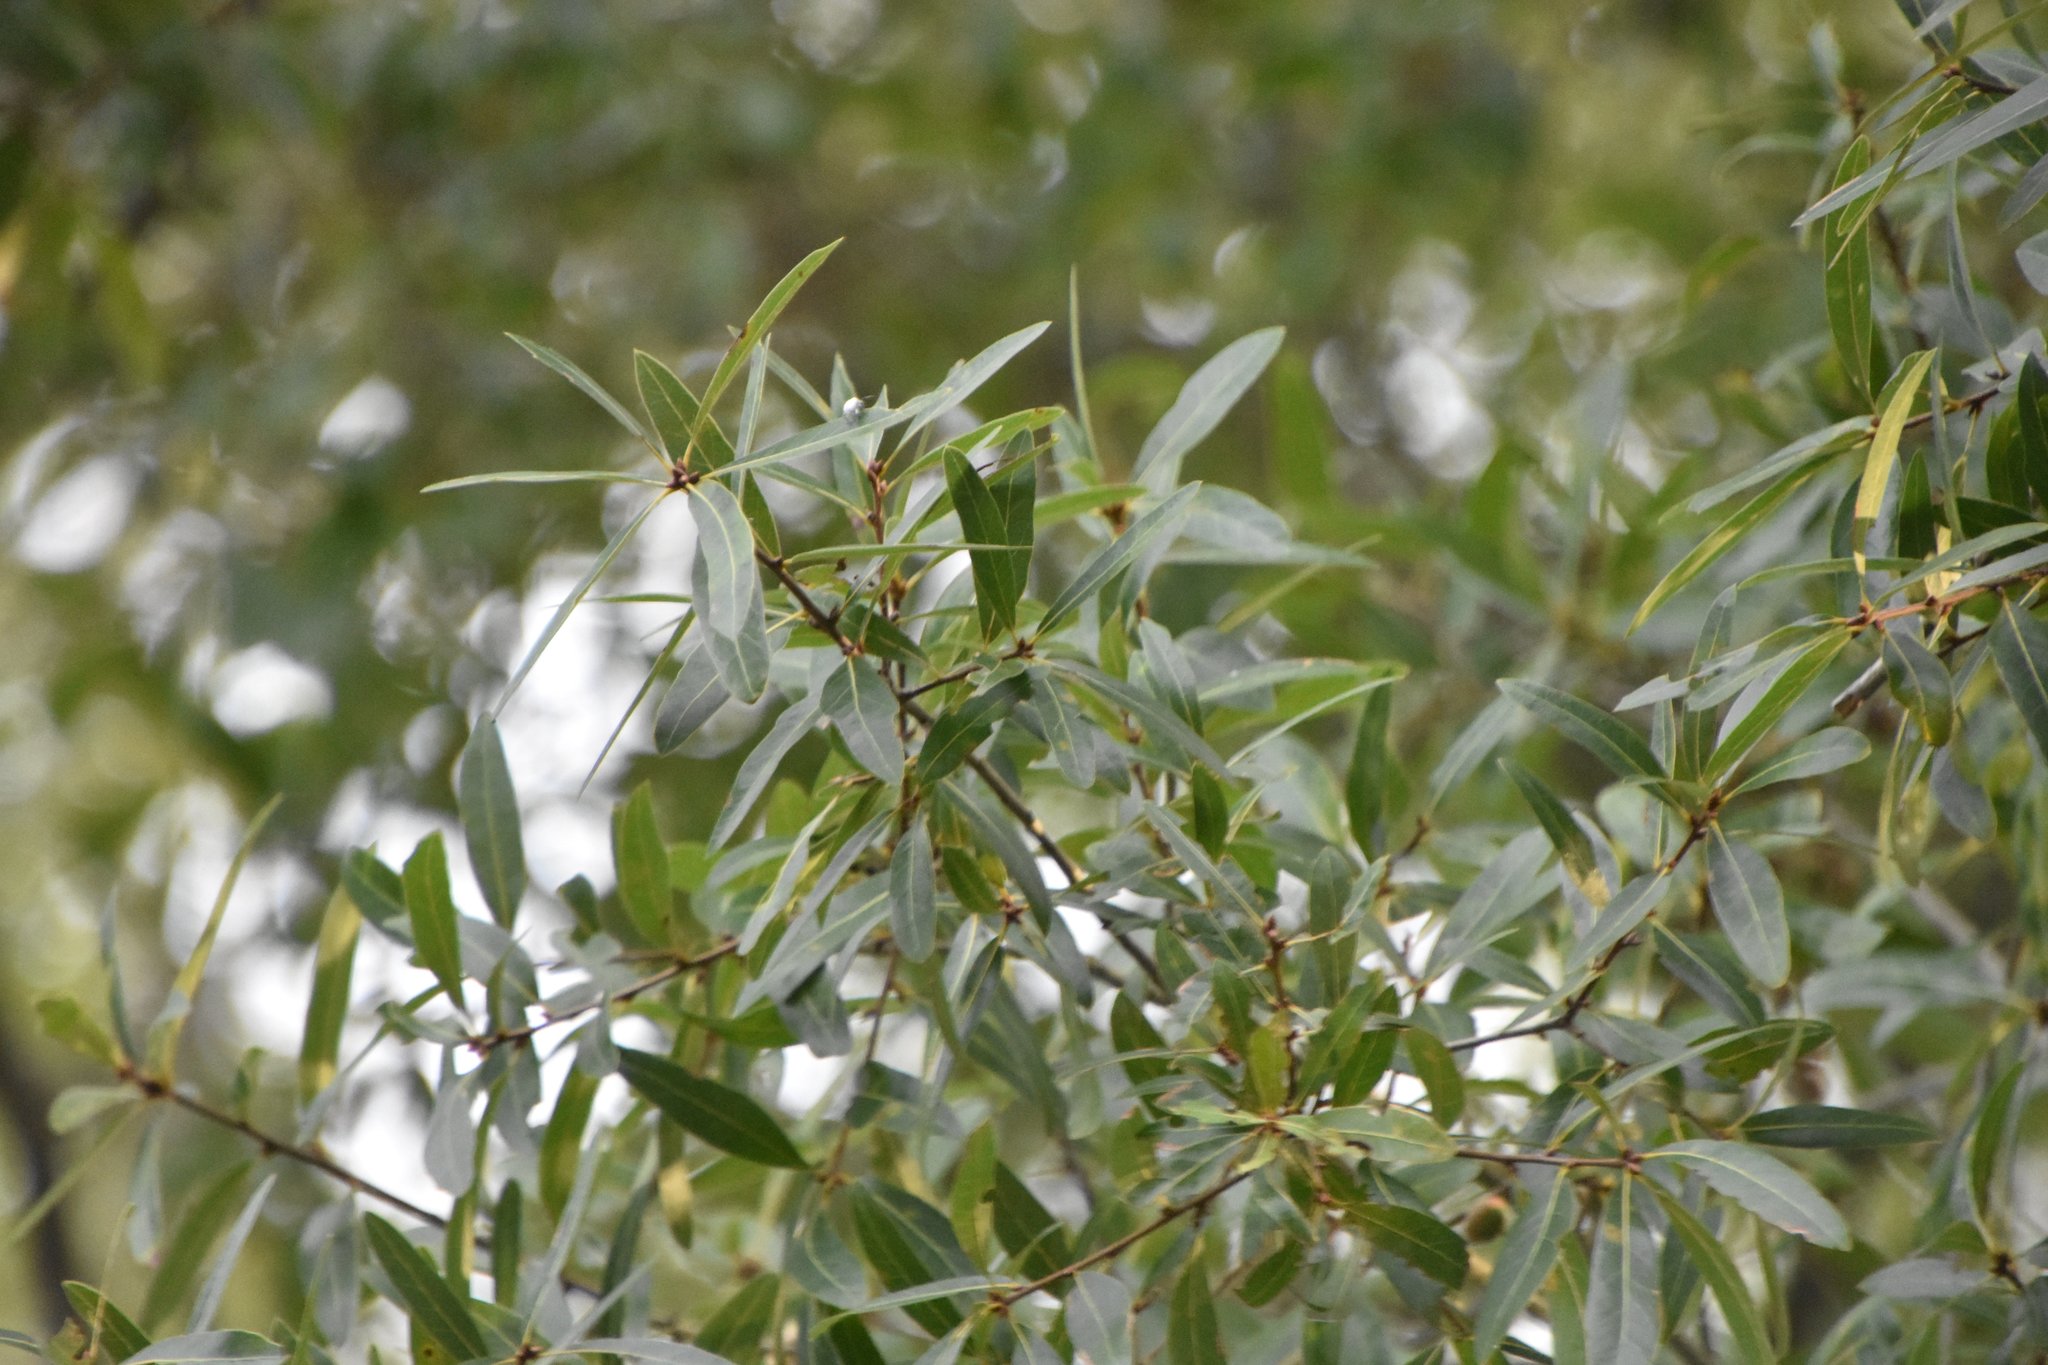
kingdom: Plantae
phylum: Tracheophyta
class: Magnoliopsida
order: Fagales
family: Fagaceae
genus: Quercus
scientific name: Quercus laurifolia
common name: Swamp laurel oak
